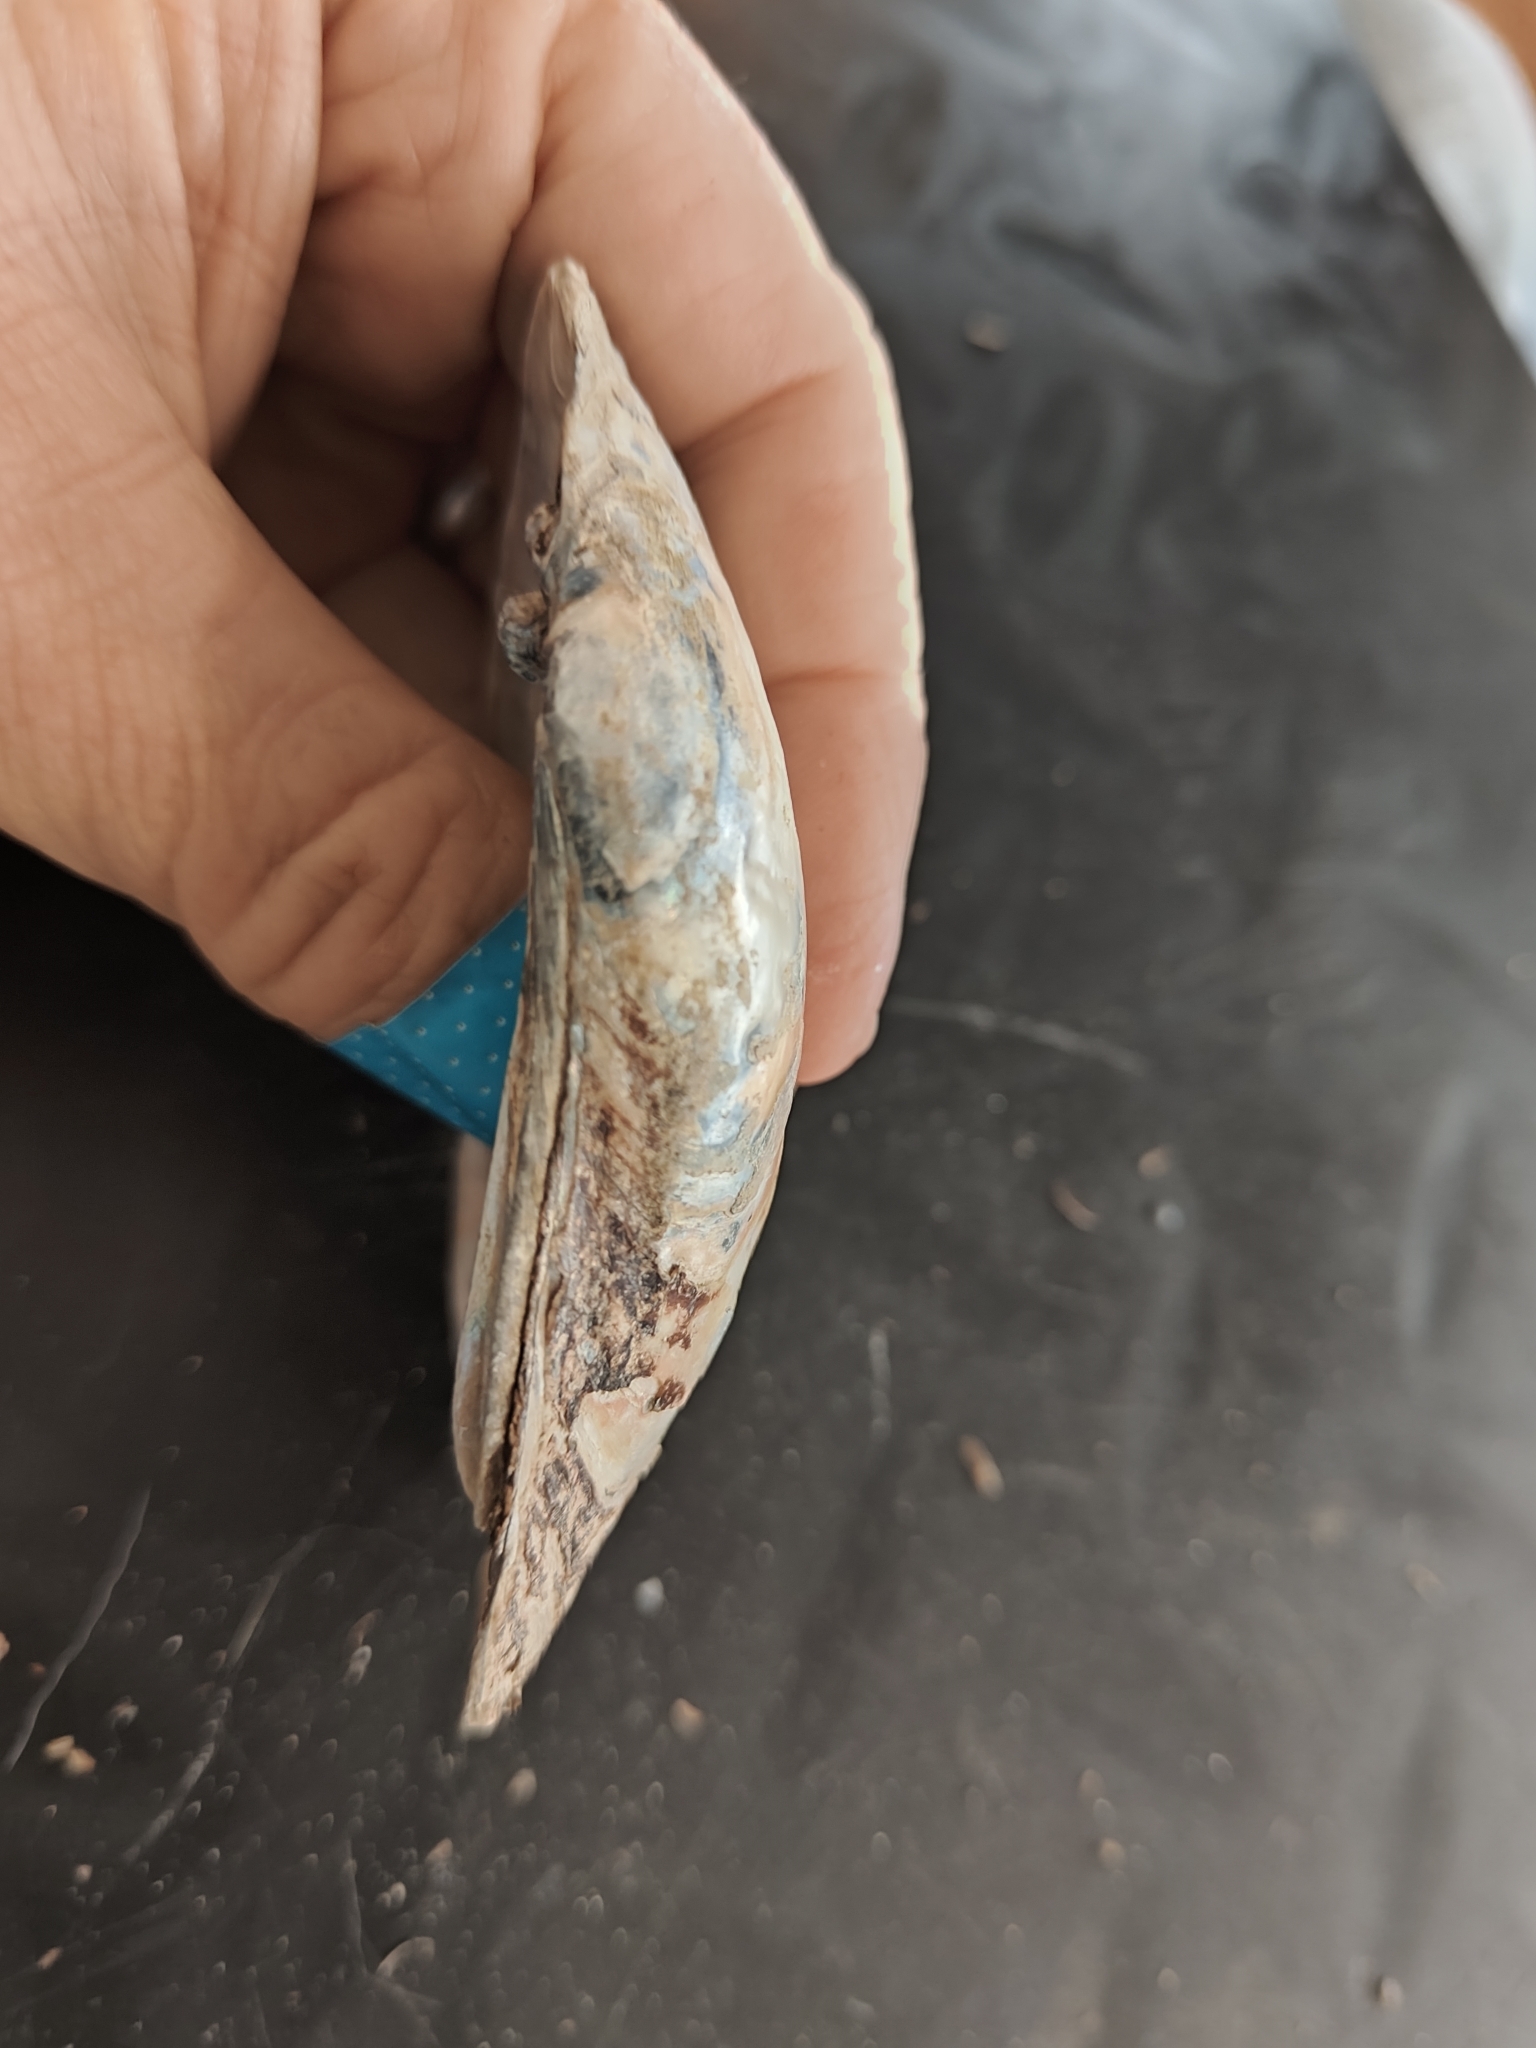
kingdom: Animalia
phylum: Mollusca
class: Bivalvia
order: Unionida
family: Unionidae
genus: Lampsilis
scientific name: Lampsilis siliquoidea
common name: Fatmucket
